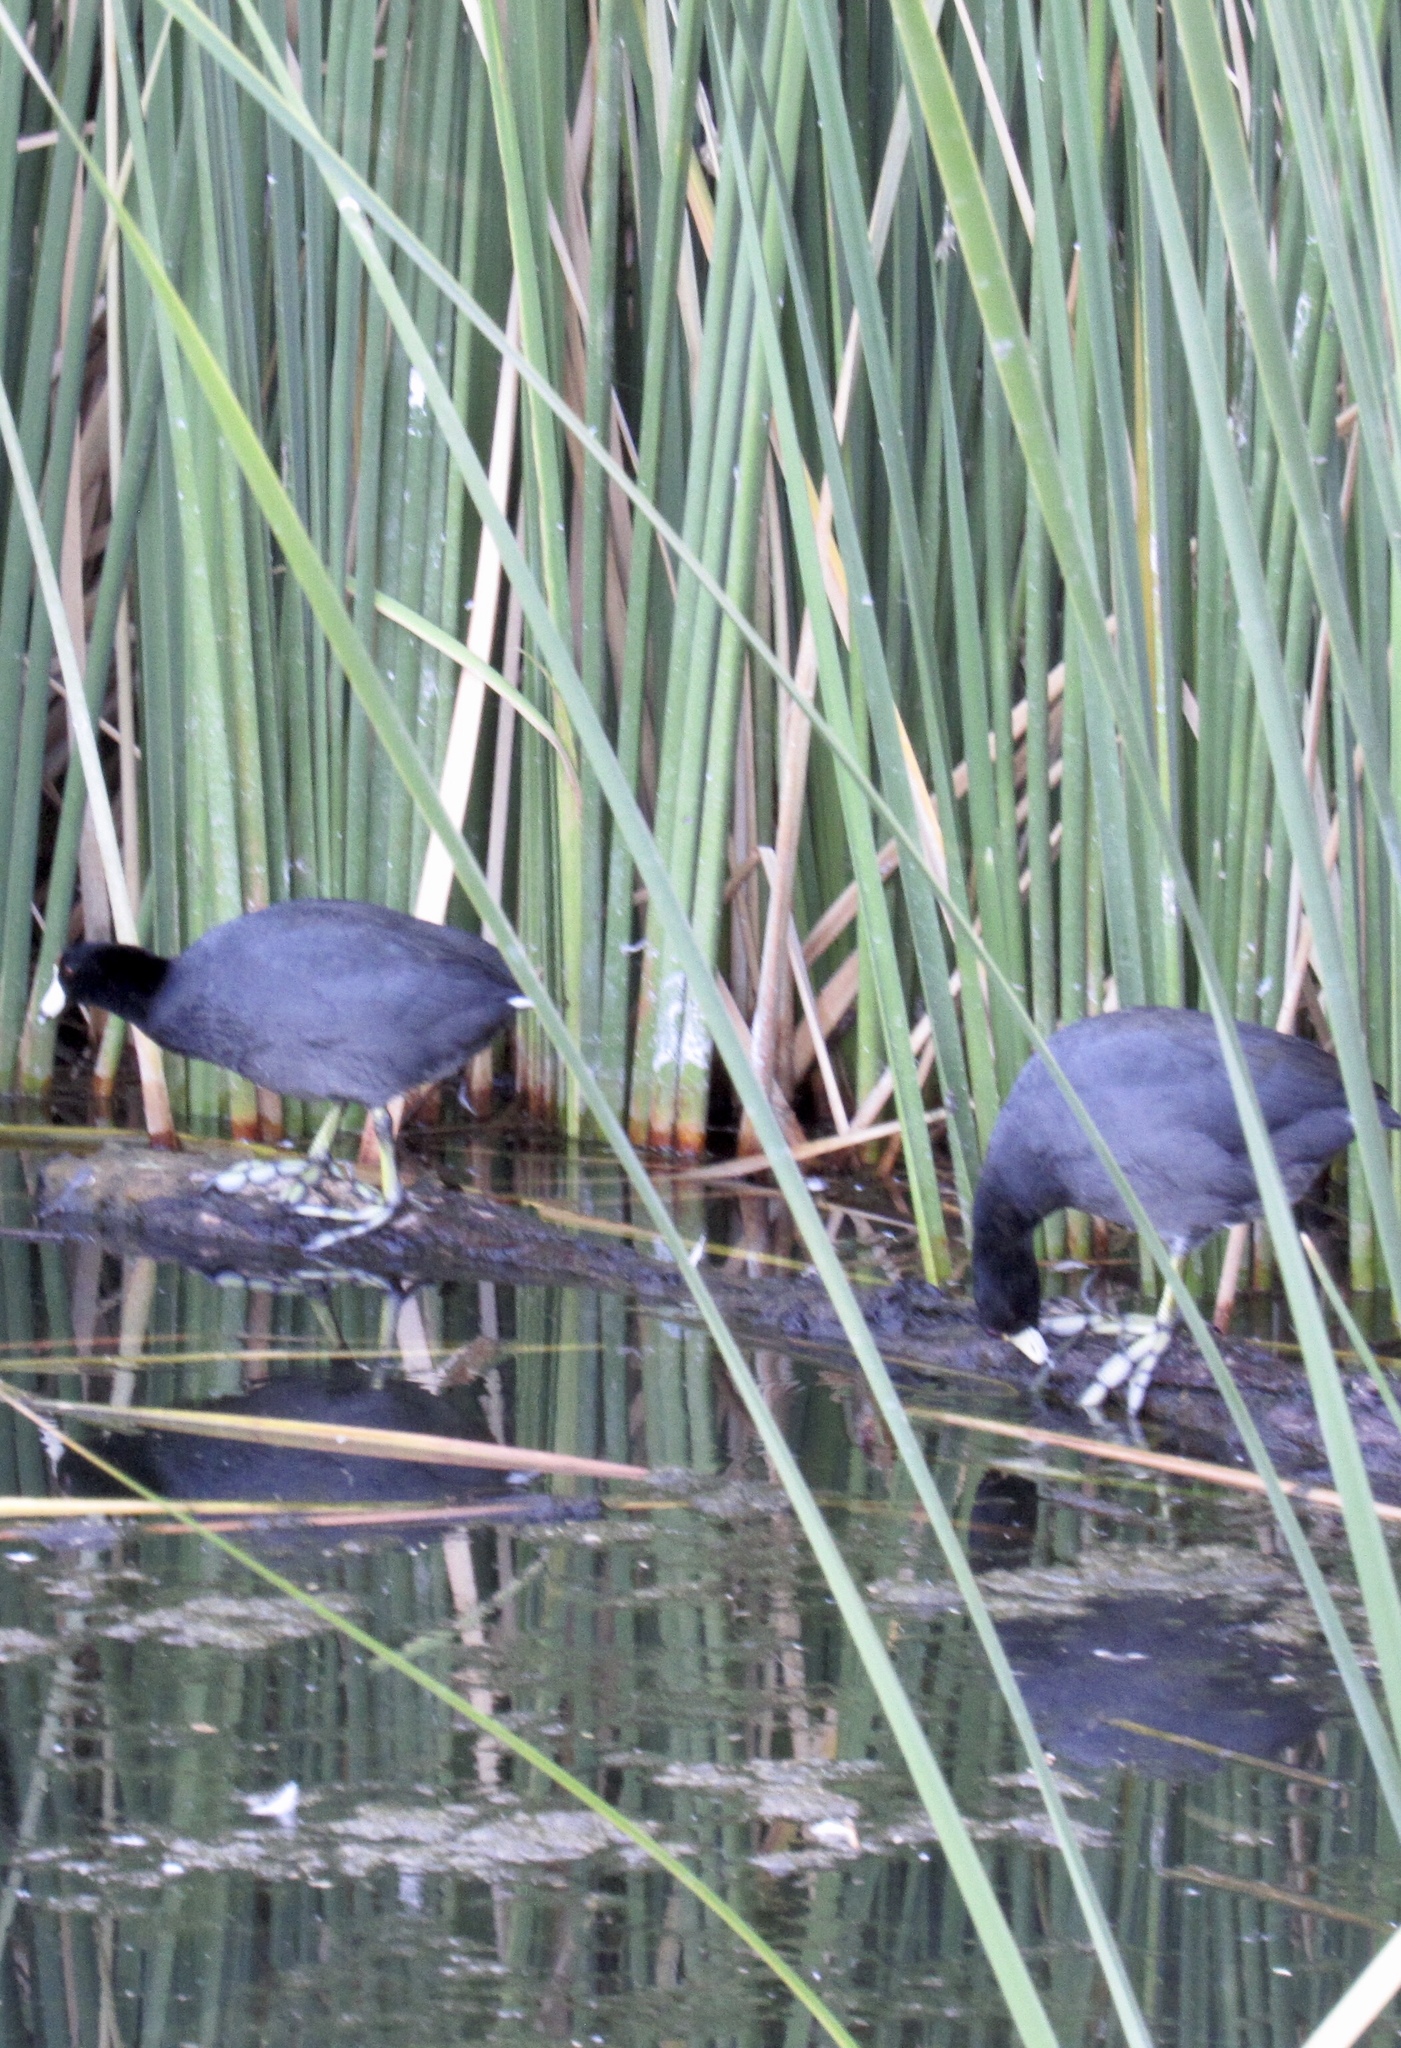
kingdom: Animalia
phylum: Chordata
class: Aves
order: Gruiformes
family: Rallidae
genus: Fulica
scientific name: Fulica americana
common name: American coot
